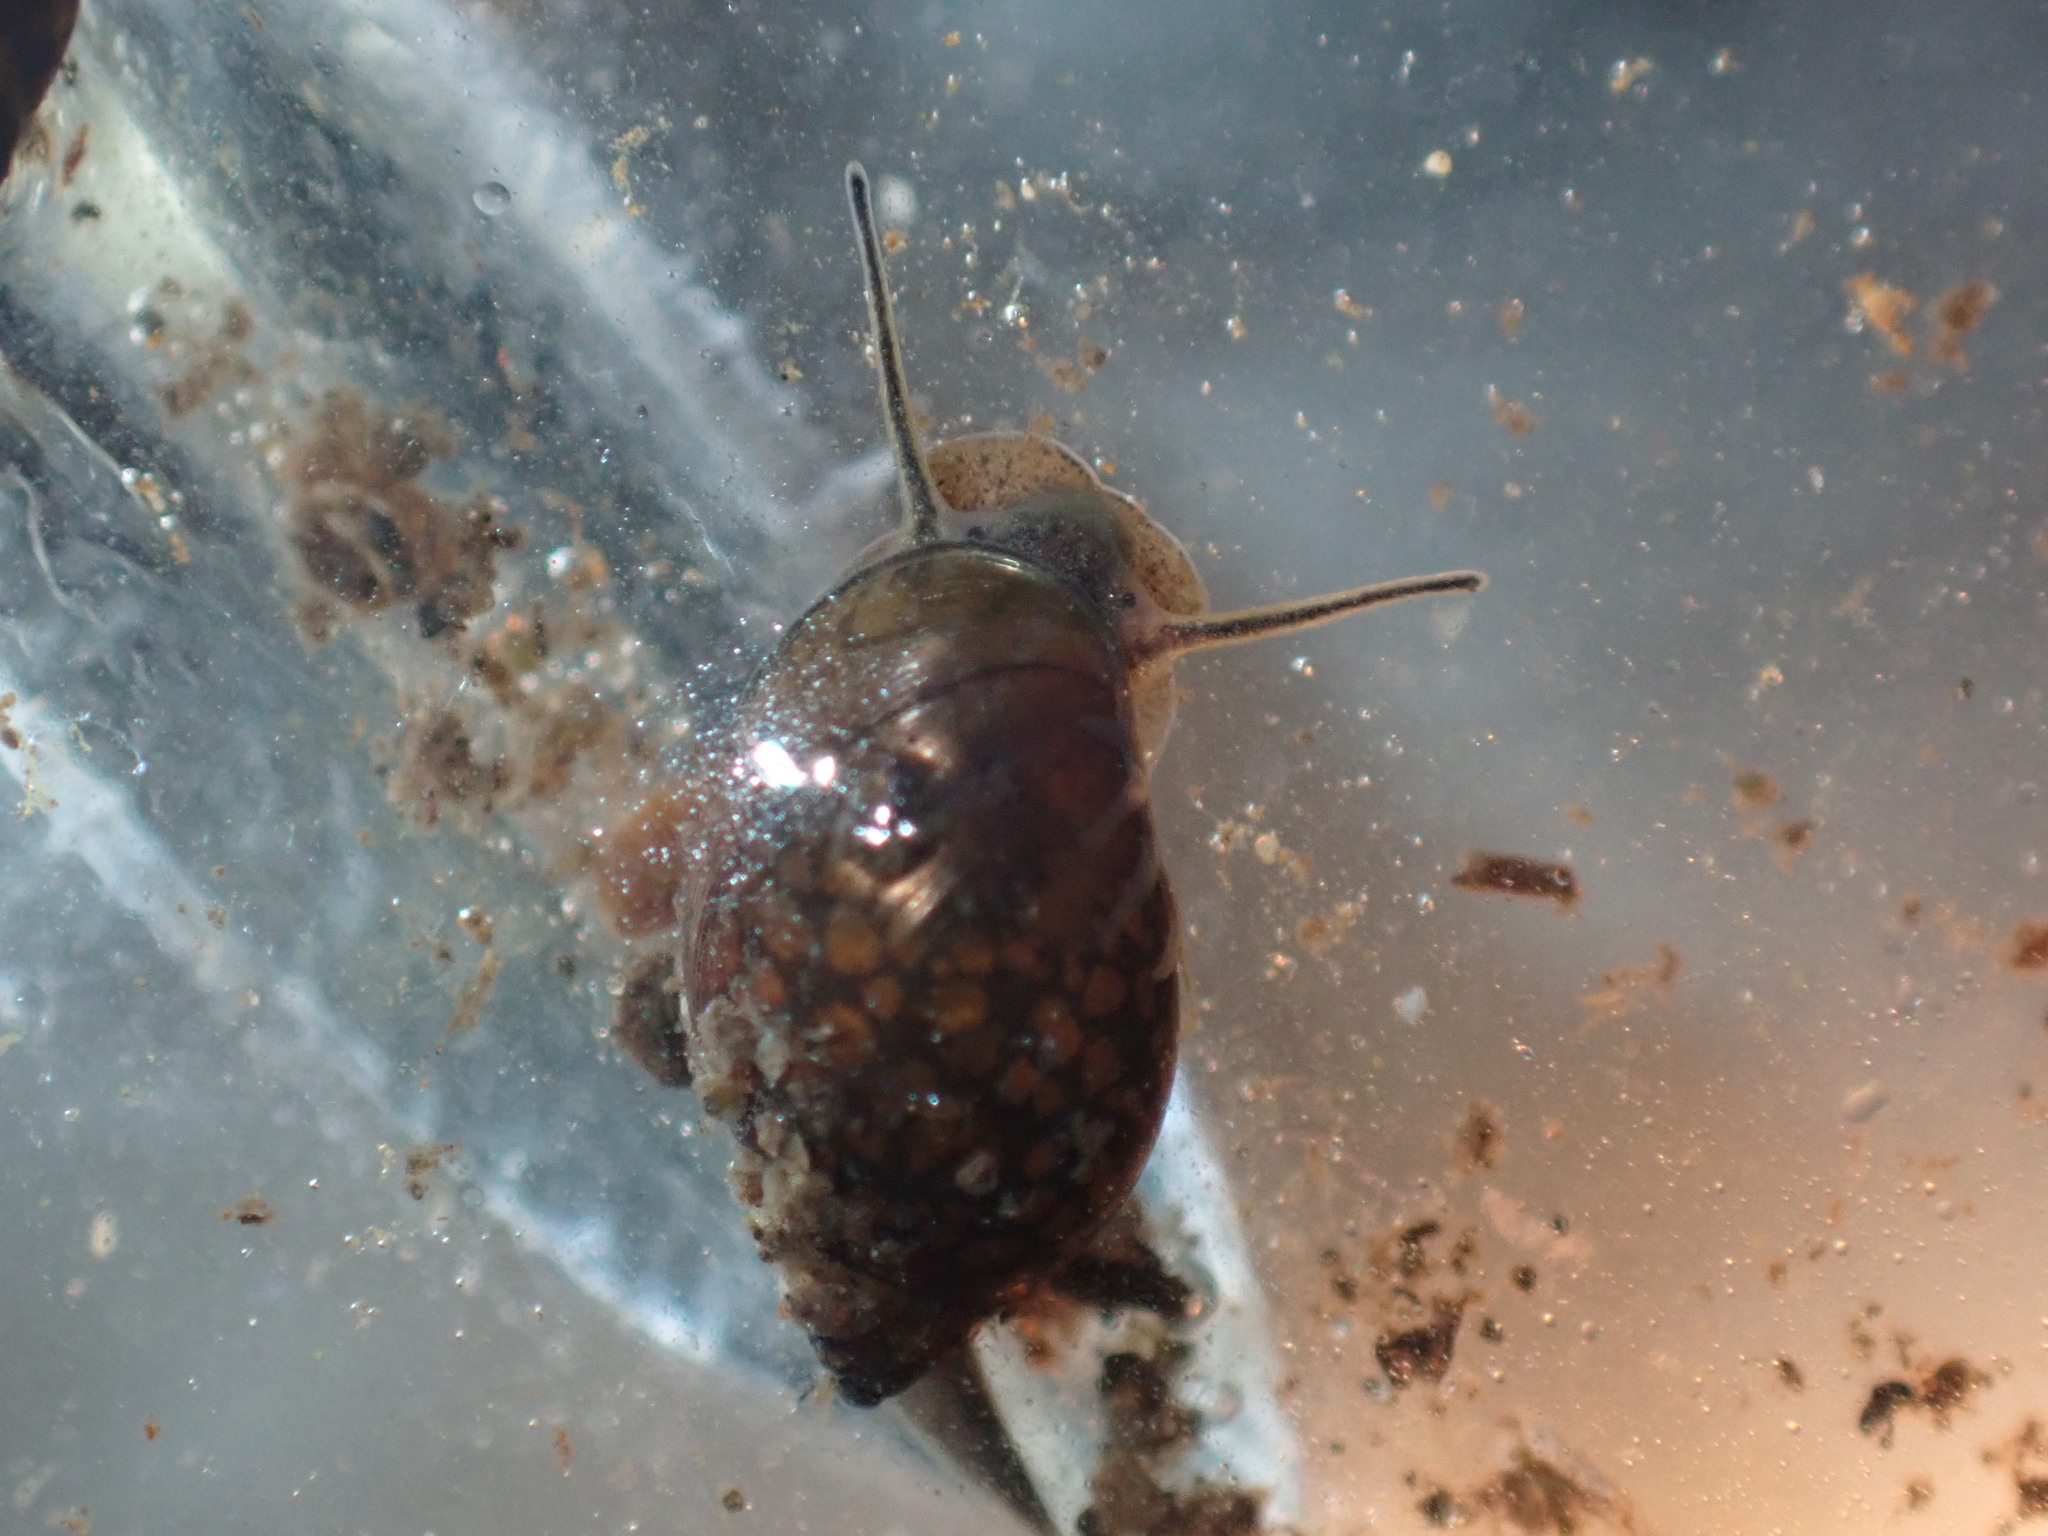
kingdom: Animalia
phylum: Mollusca
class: Gastropoda
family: Physidae
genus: Physella
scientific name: Physella acuta
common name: European physa
